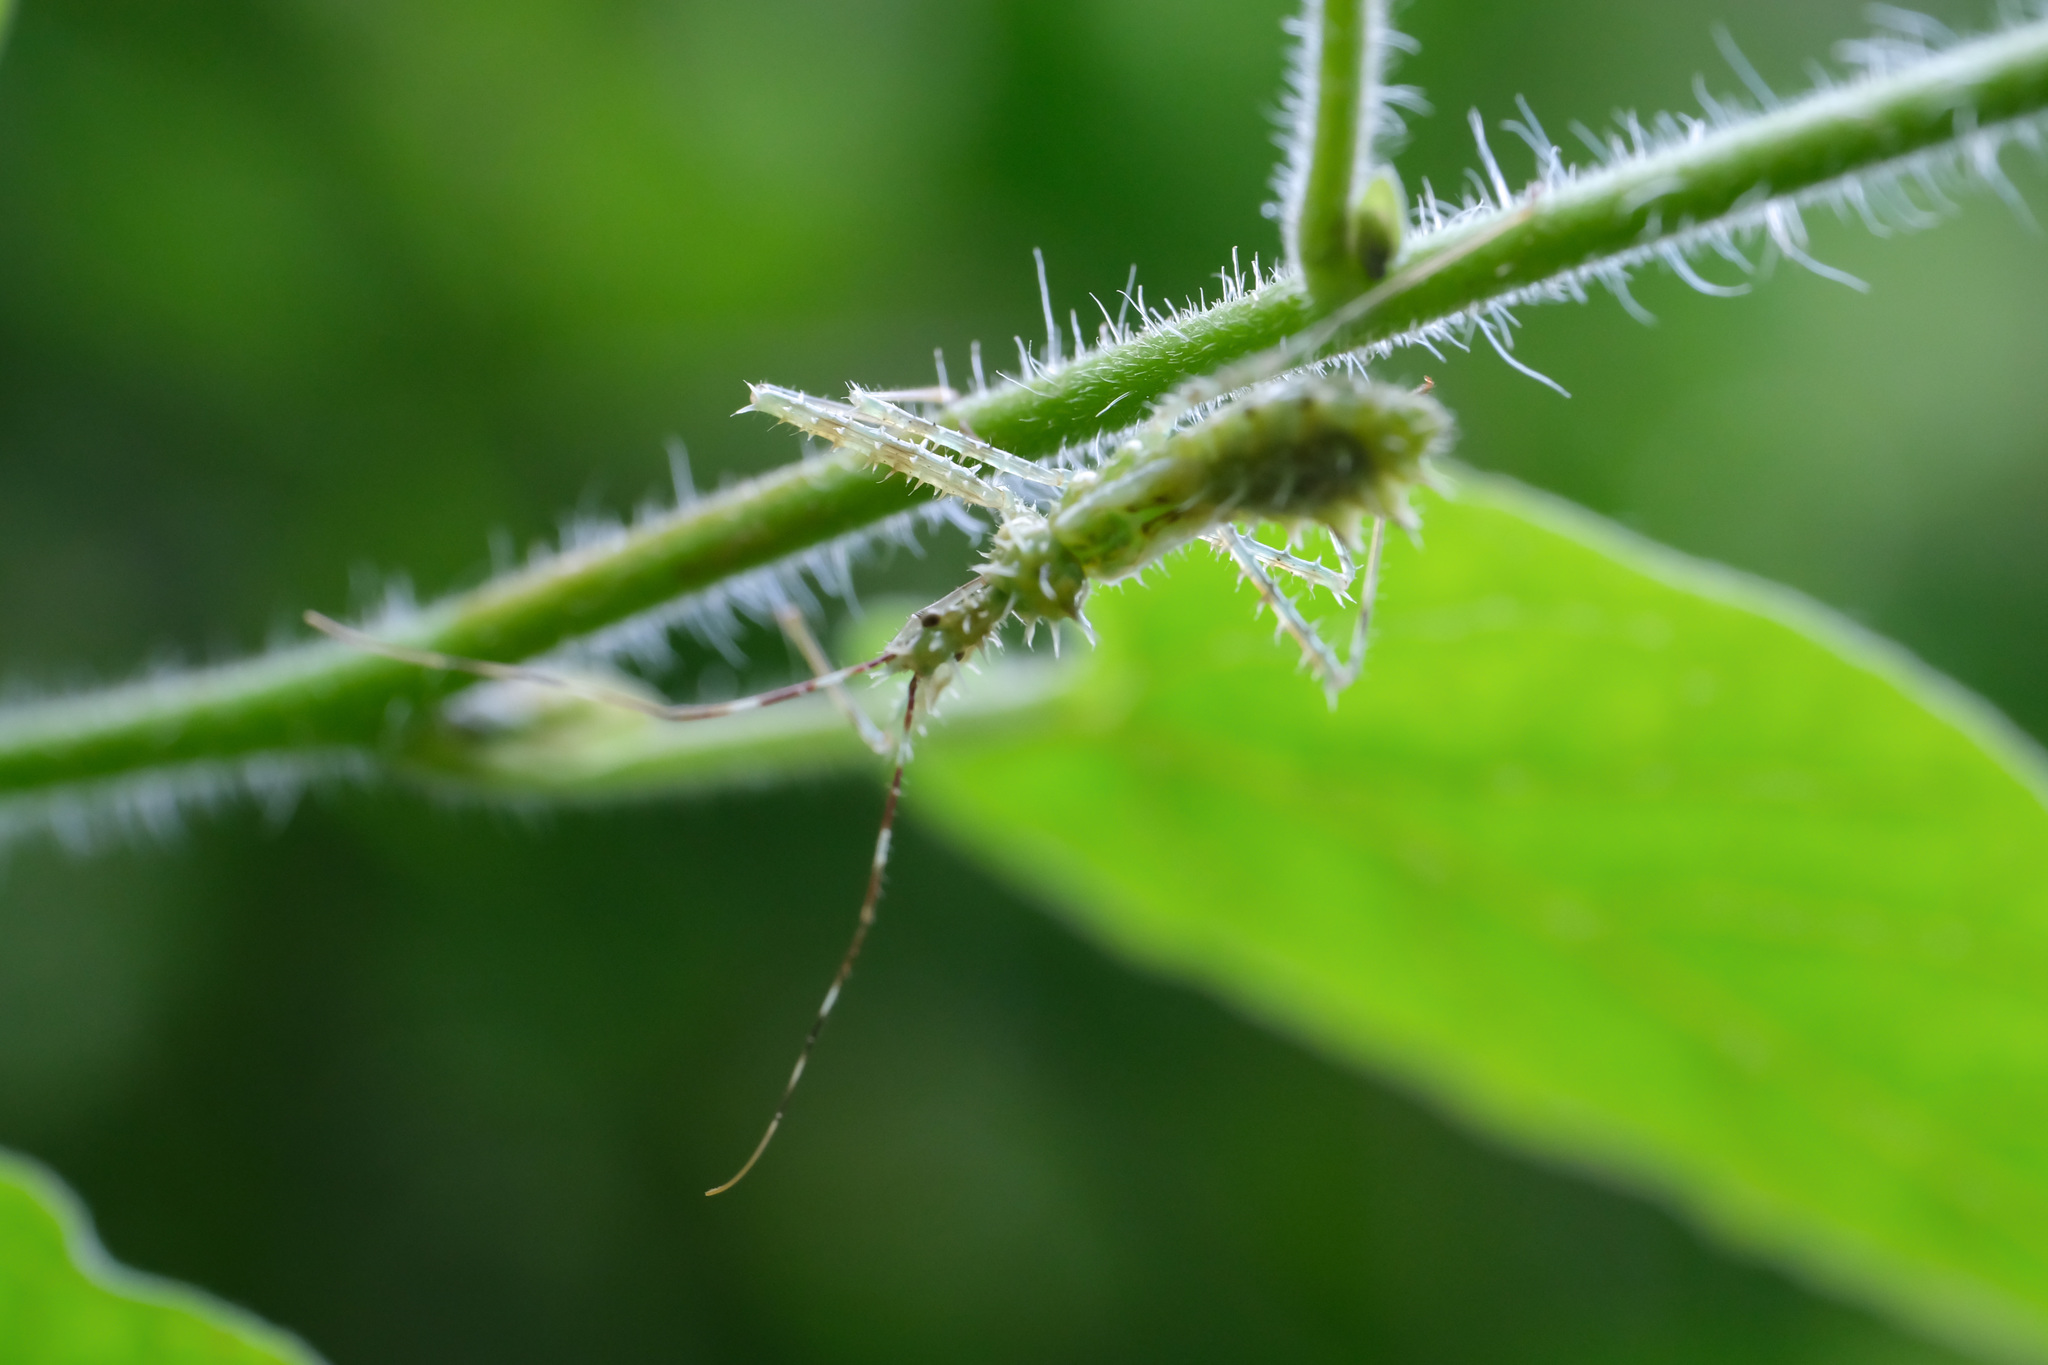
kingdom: Animalia
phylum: Arthropoda
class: Insecta
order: Hemiptera
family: Reduviidae
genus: Sclomina
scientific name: Sclomina erinacea
